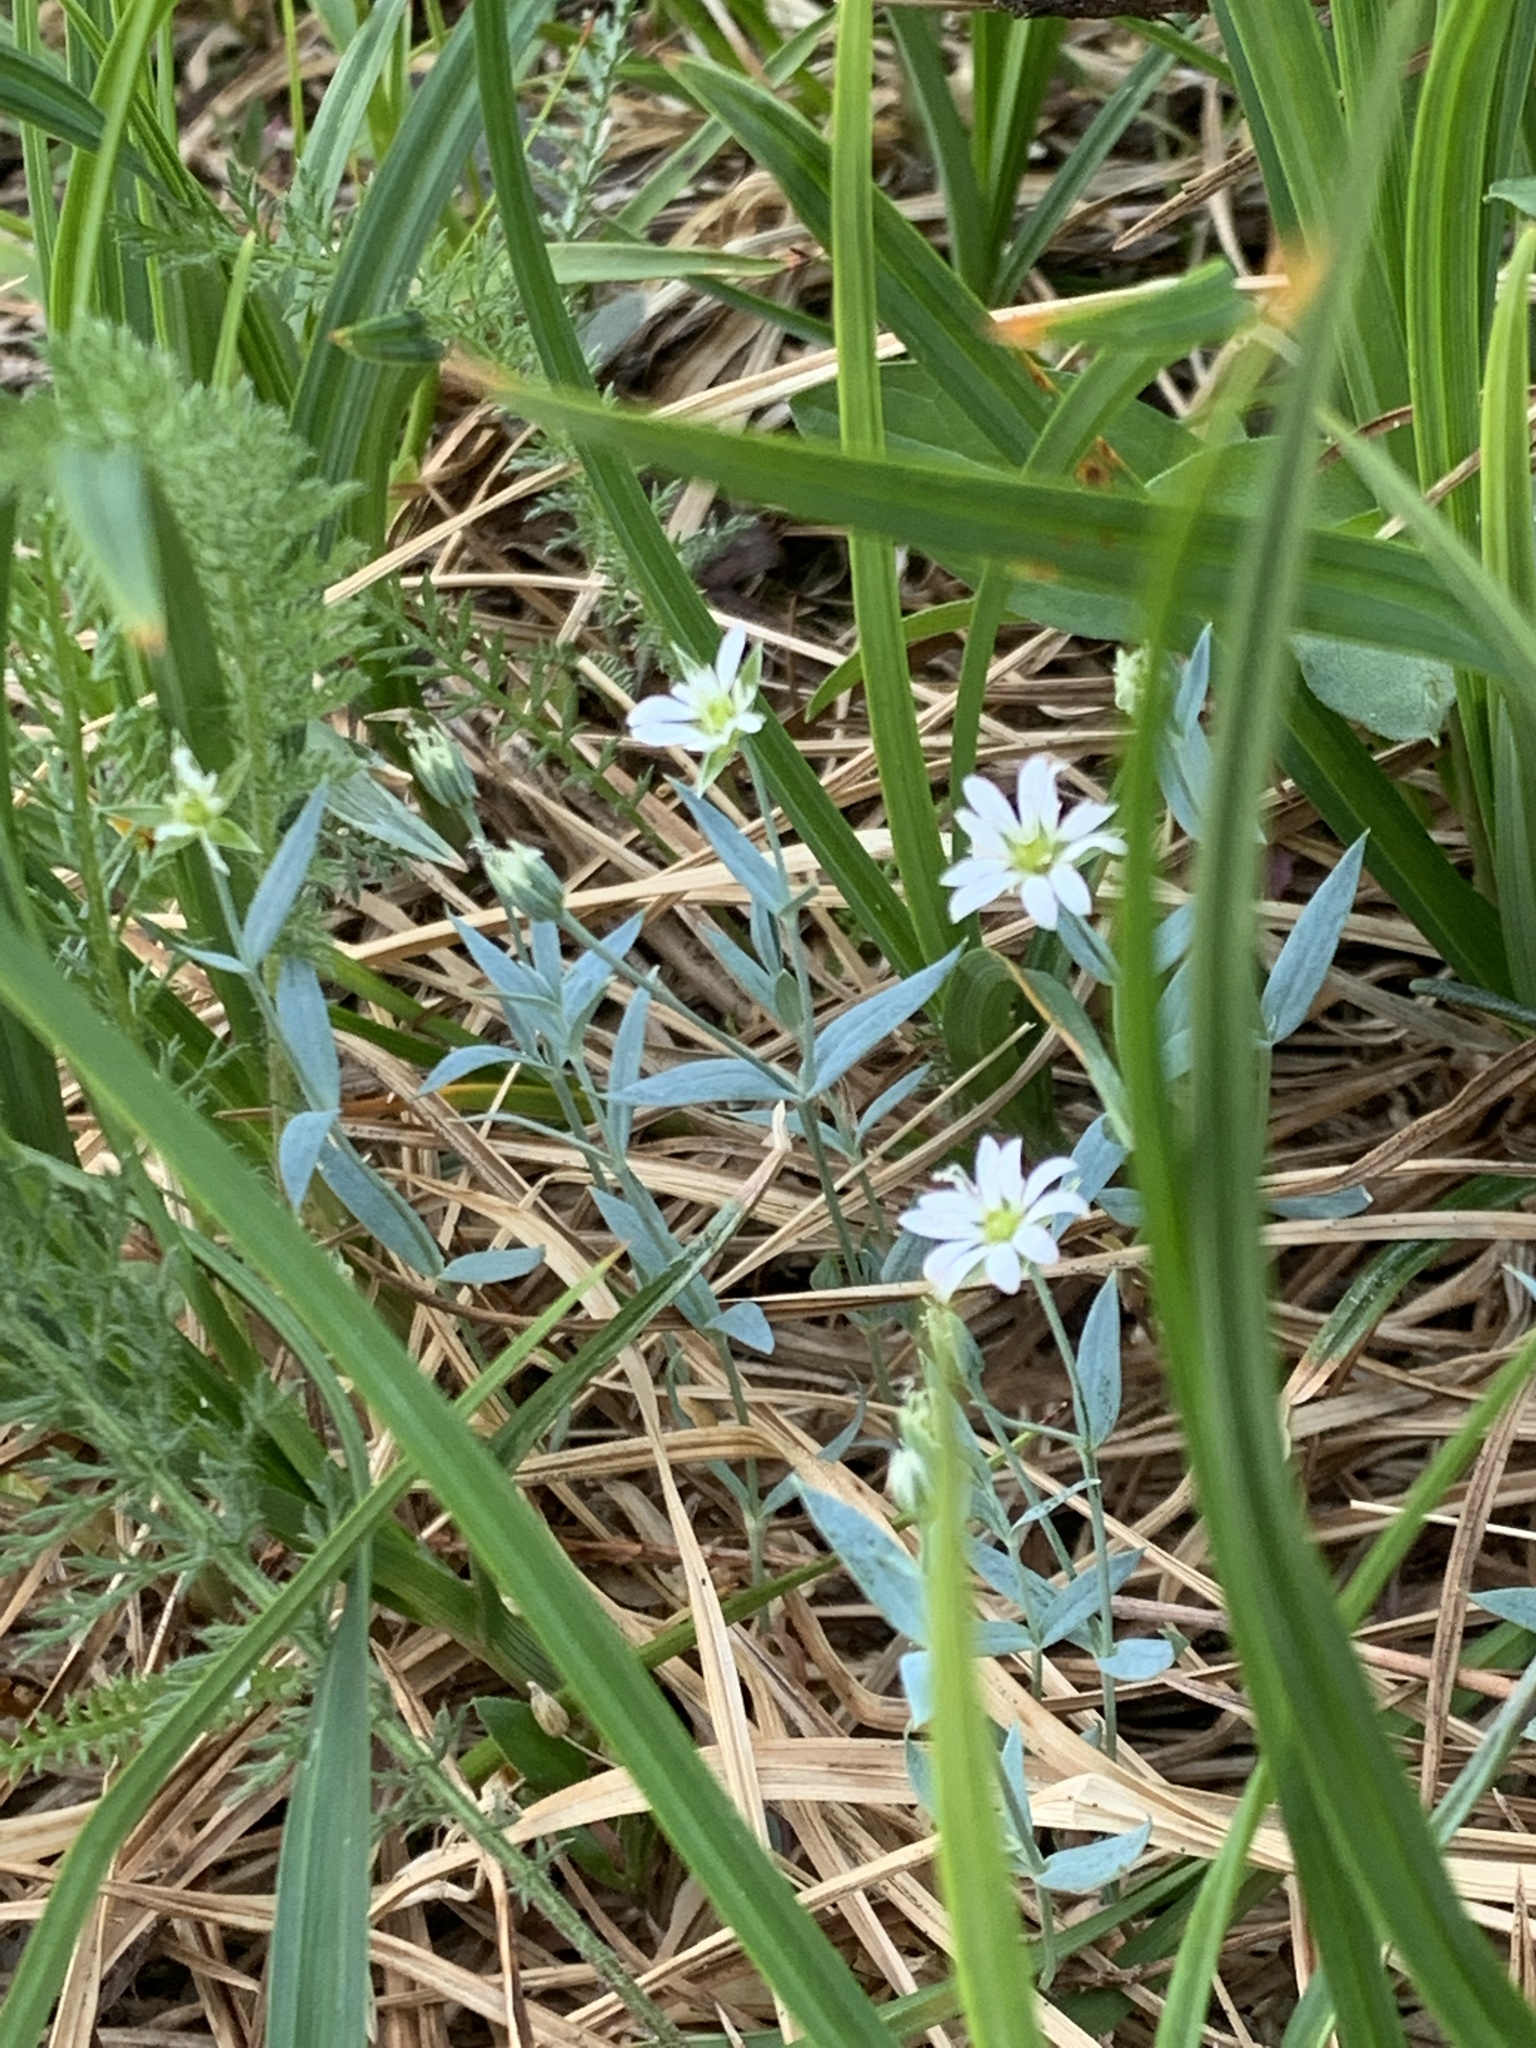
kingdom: Plantae
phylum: Tracheophyta
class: Magnoliopsida
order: Caryophyllales
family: Caryophyllaceae
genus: Stellaria
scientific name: Stellaria longipes
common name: Goldie's starwort
